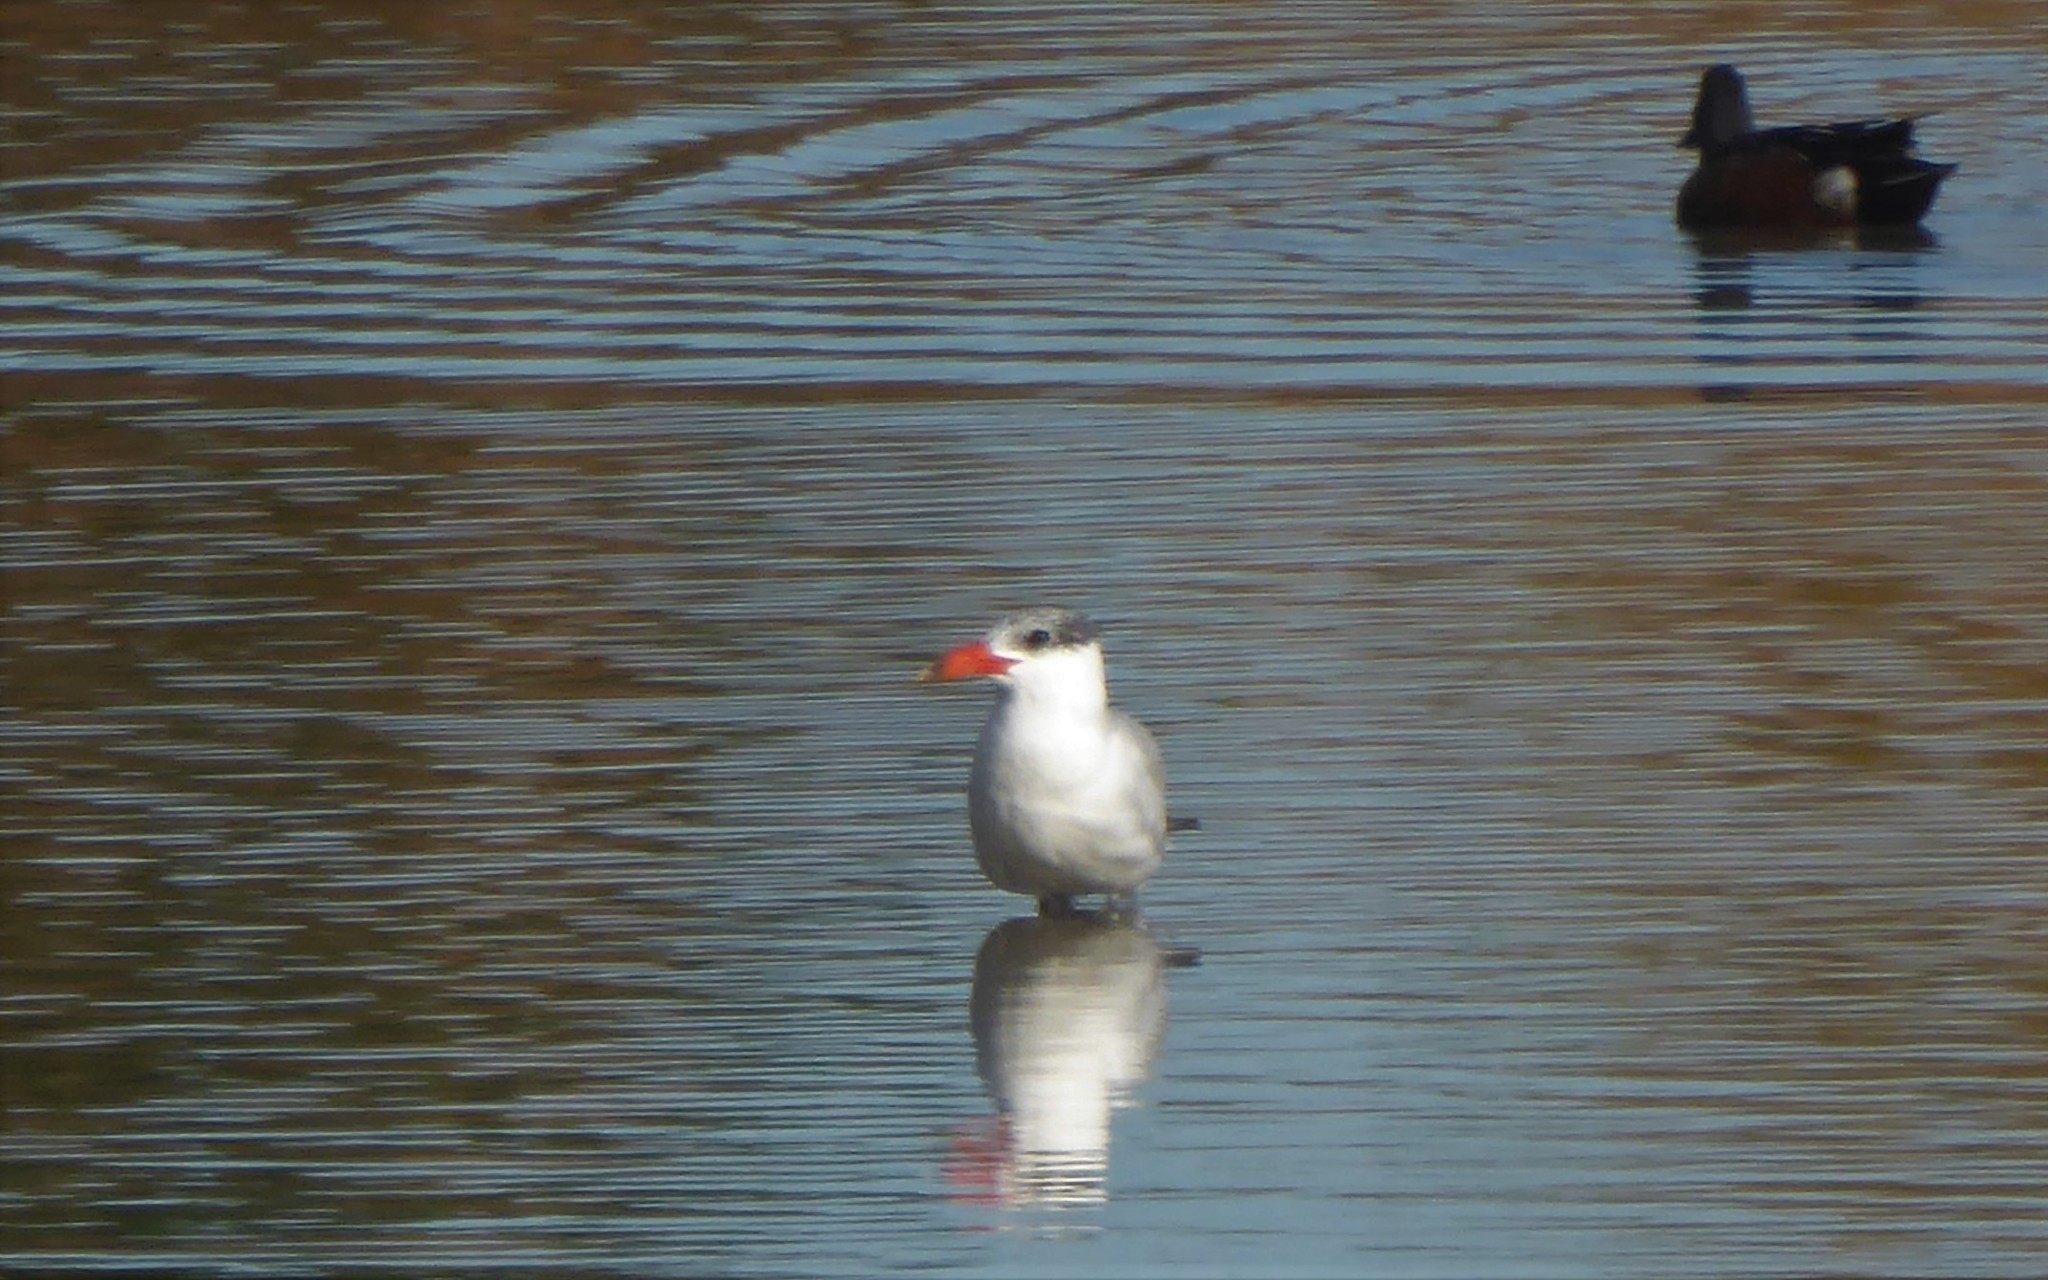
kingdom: Animalia
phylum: Chordata
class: Aves
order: Charadriiformes
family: Laridae
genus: Hydroprogne
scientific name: Hydroprogne caspia
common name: Caspian tern
